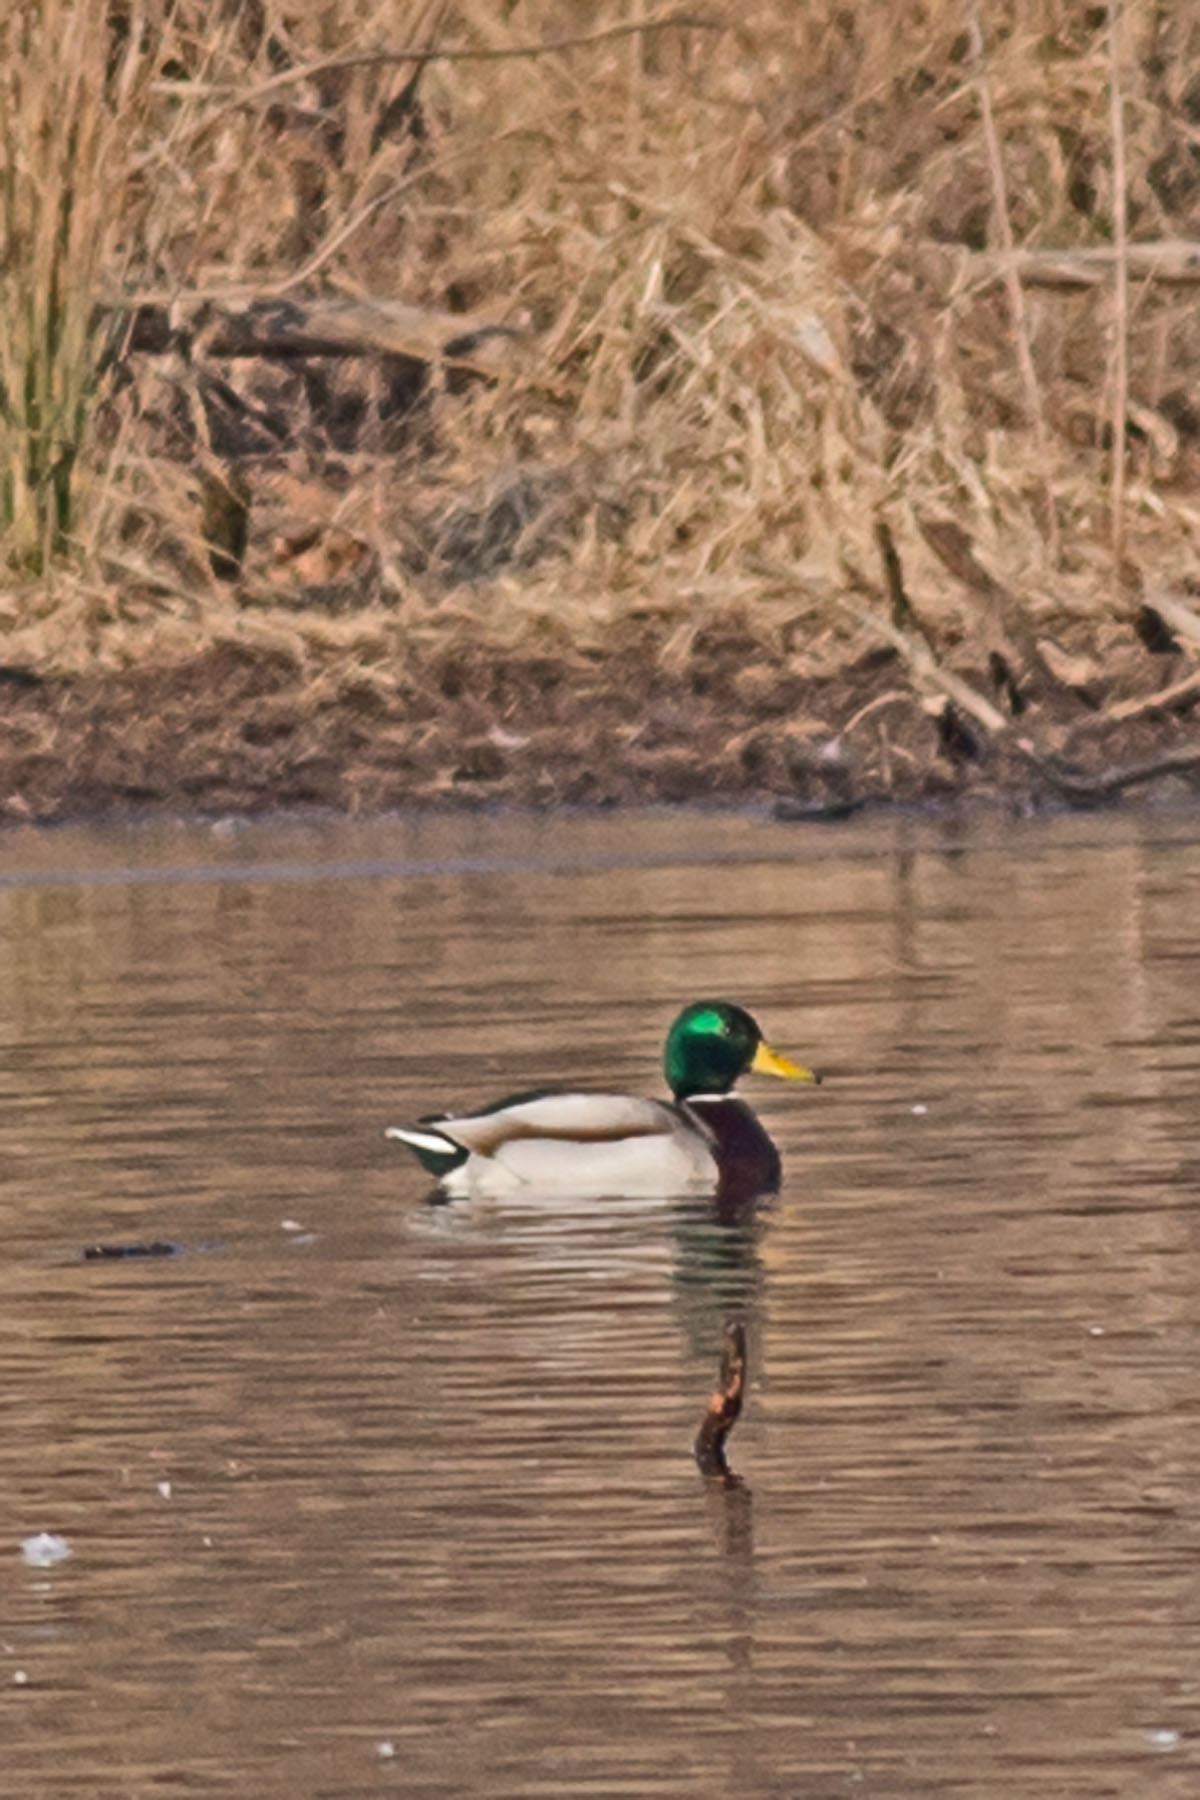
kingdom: Animalia
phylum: Chordata
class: Aves
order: Anseriformes
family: Anatidae
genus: Anas
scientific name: Anas platyrhynchos
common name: Mallard
